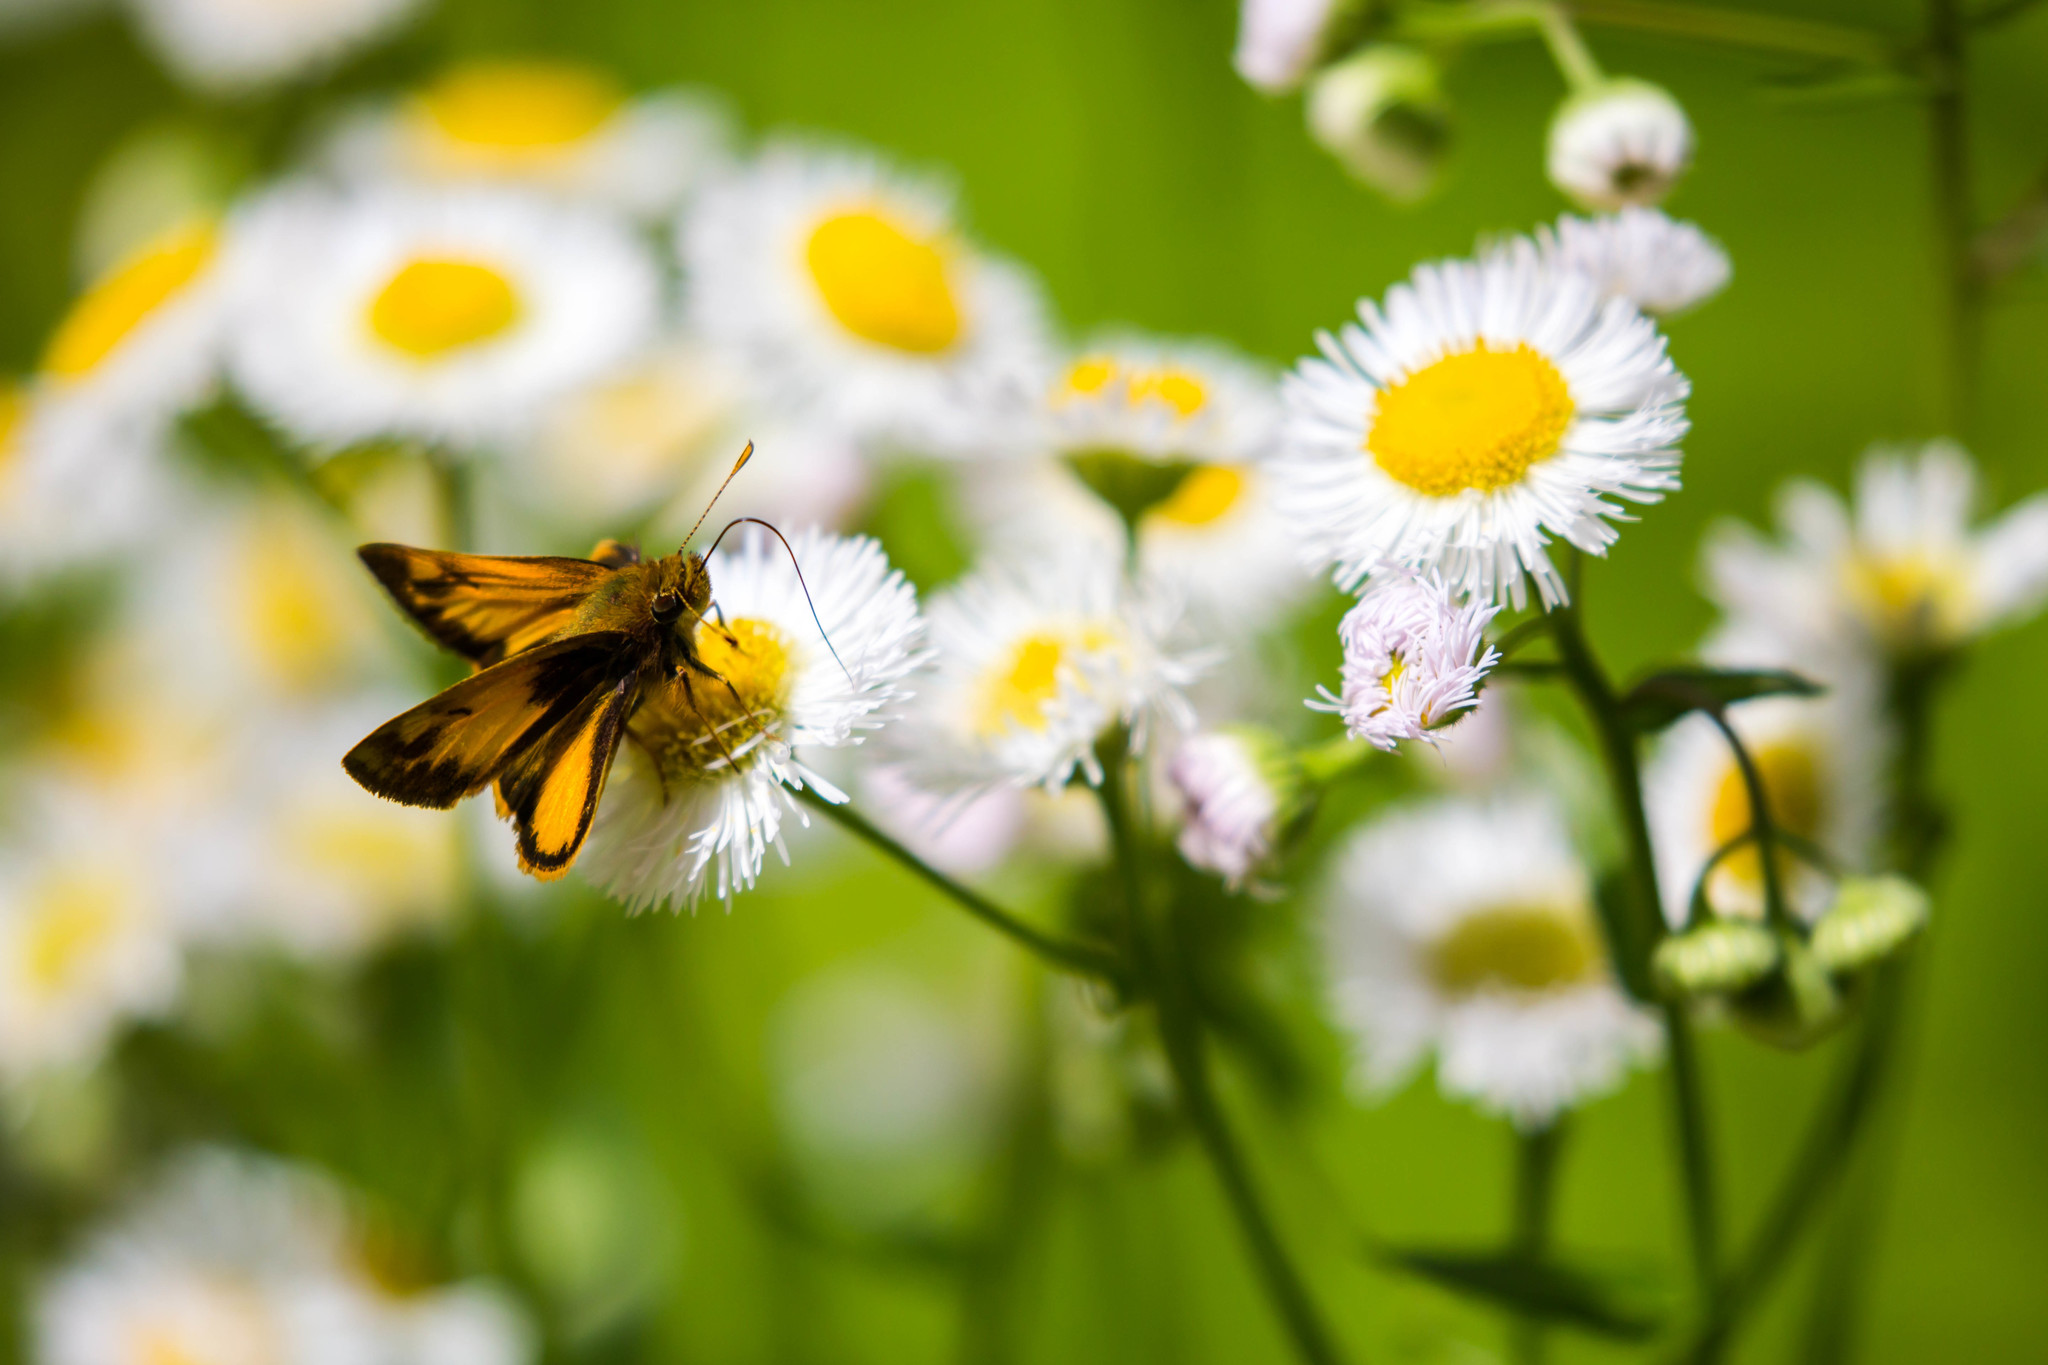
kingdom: Animalia
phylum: Arthropoda
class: Insecta
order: Lepidoptera
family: Hesperiidae
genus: Lon
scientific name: Lon zabulon
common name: Zabulon skipper
